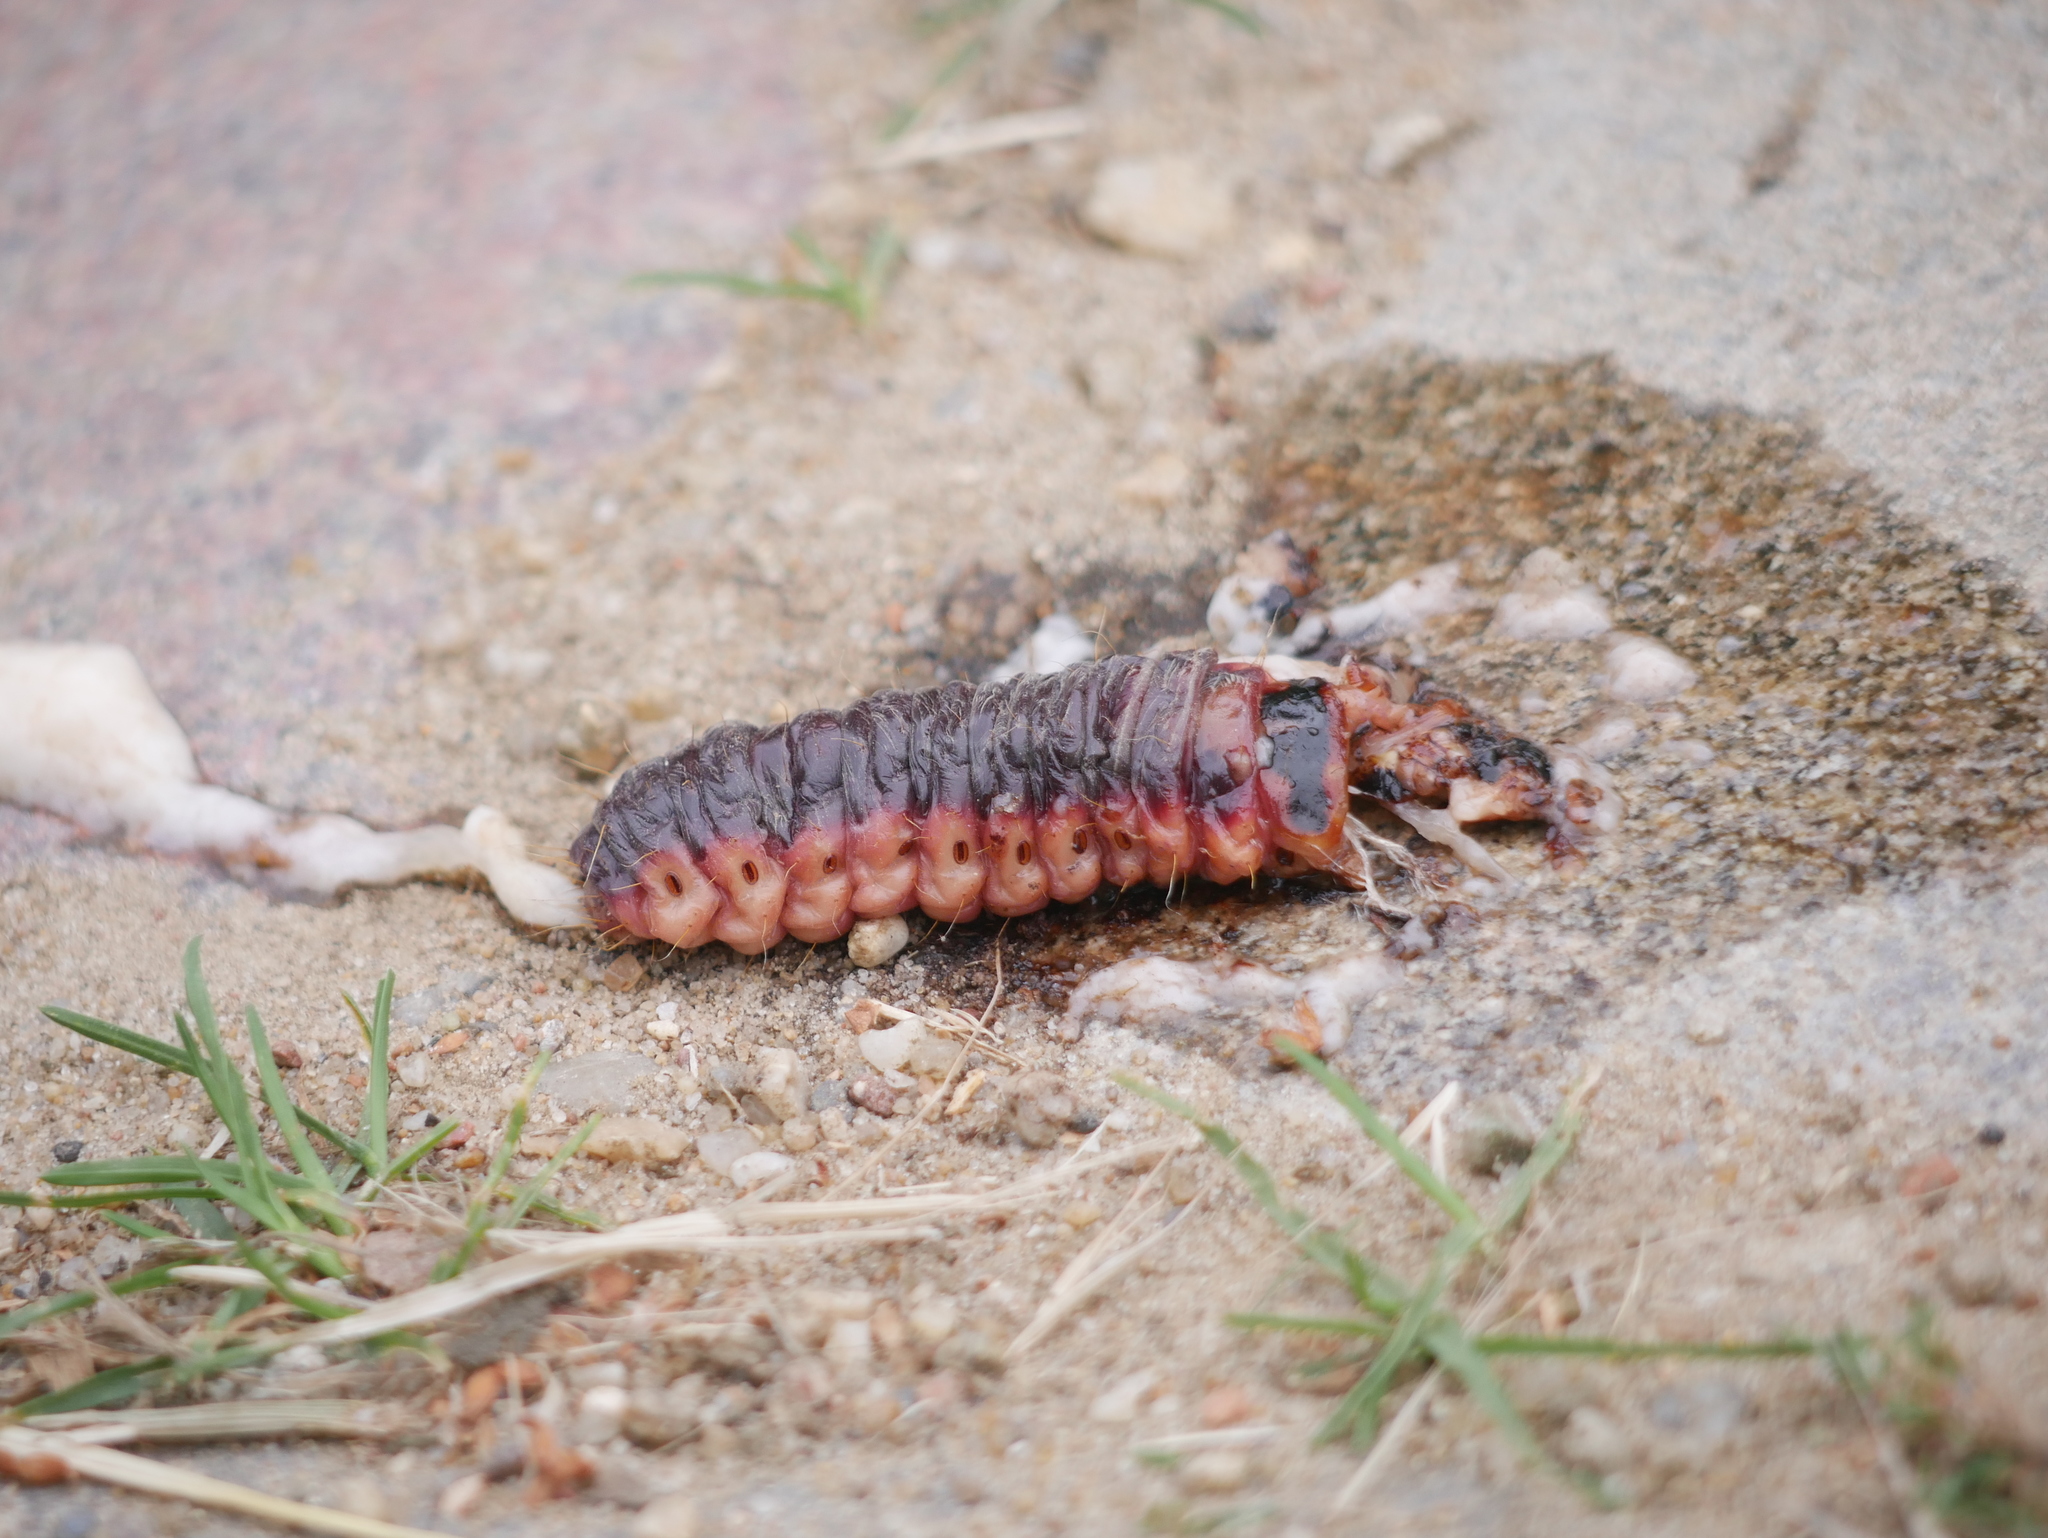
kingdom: Animalia
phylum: Arthropoda
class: Insecta
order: Lepidoptera
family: Cossidae
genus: Cossus
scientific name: Cossus cossus
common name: Goat moth
